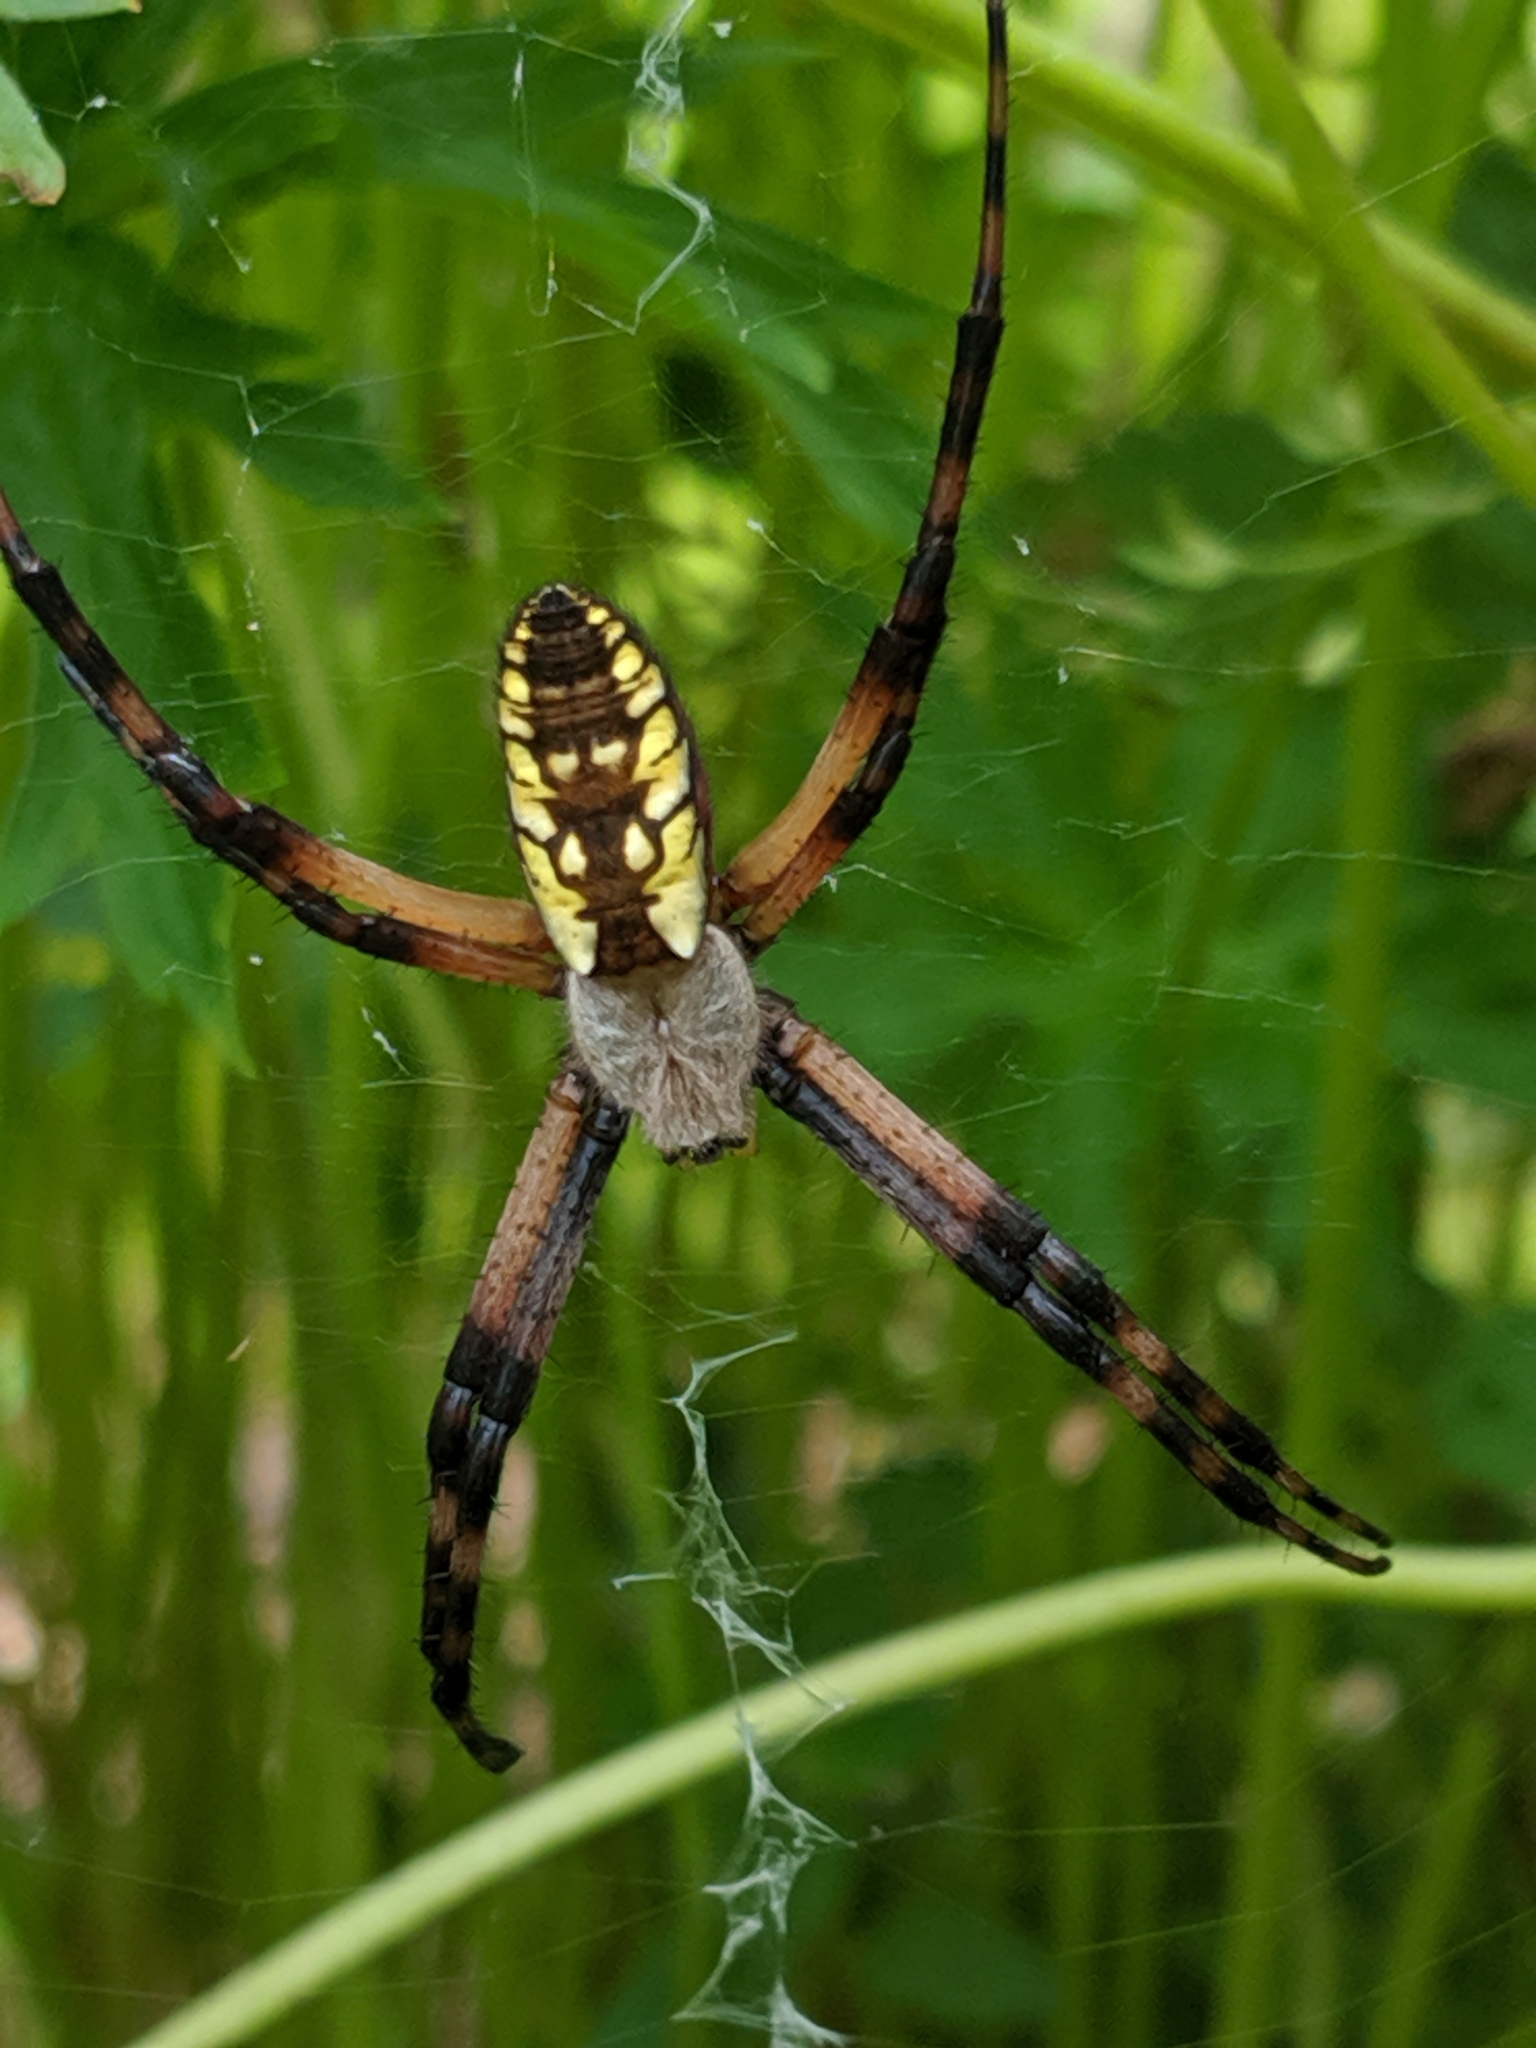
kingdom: Animalia
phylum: Arthropoda
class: Arachnida
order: Araneae
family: Araneidae
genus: Argiope
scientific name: Argiope aurantia
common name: Orb weavers
